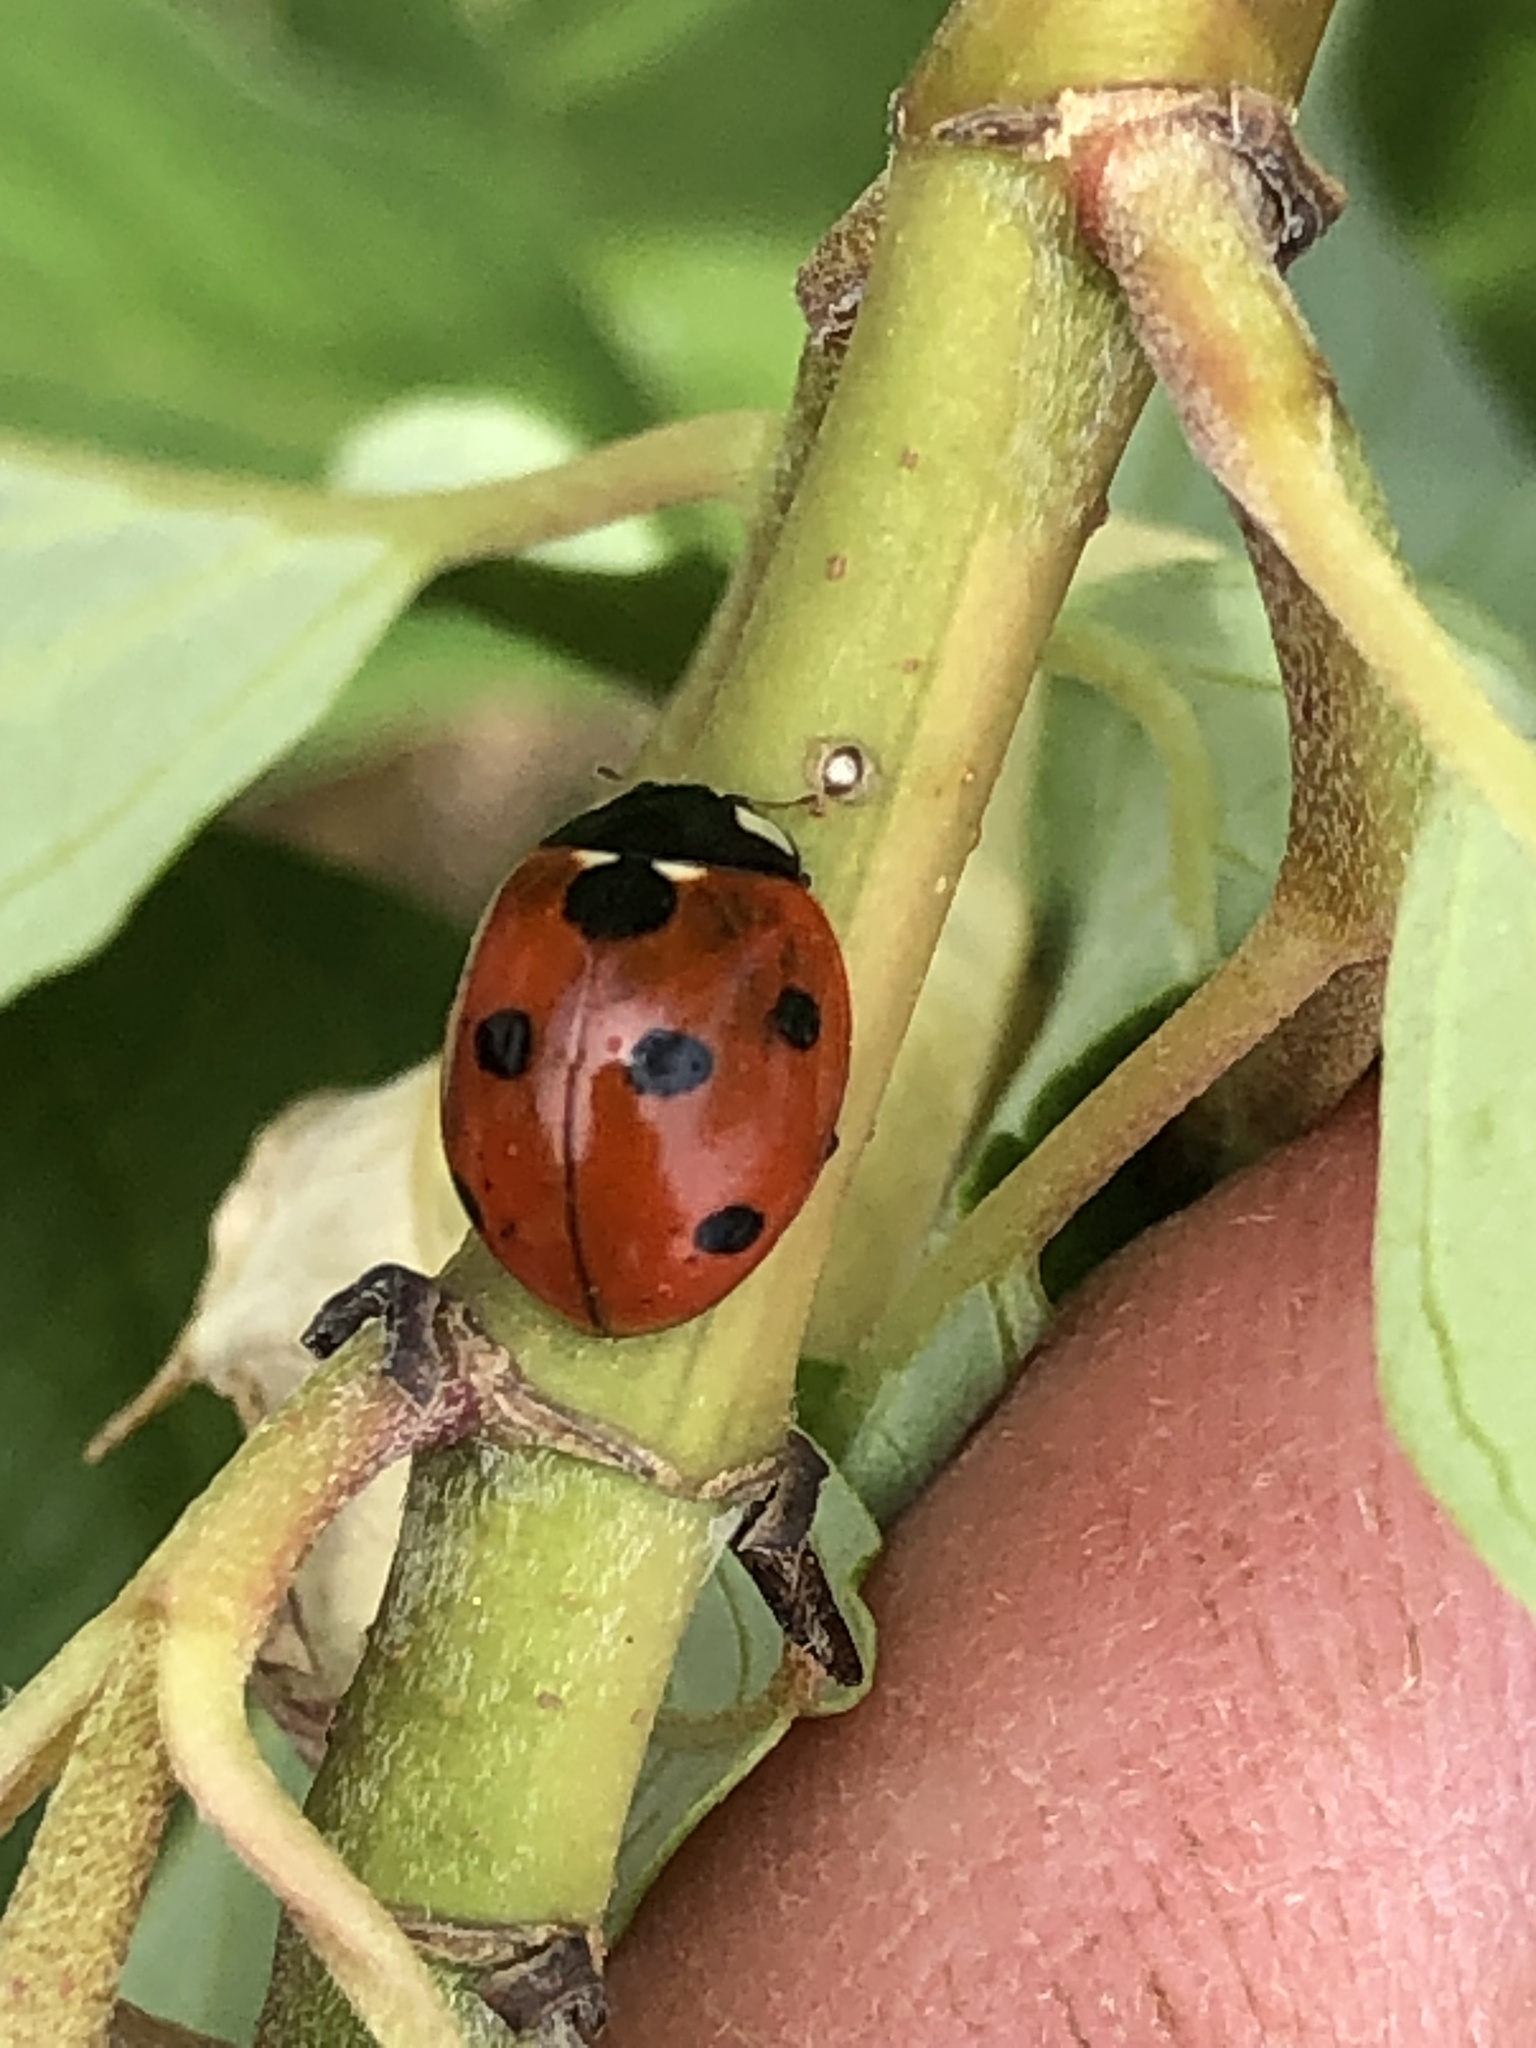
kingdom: Animalia
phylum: Arthropoda
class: Insecta
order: Coleoptera
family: Coccinellidae
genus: Coccinella
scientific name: Coccinella septempunctata
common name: Sevenspotted lady beetle
